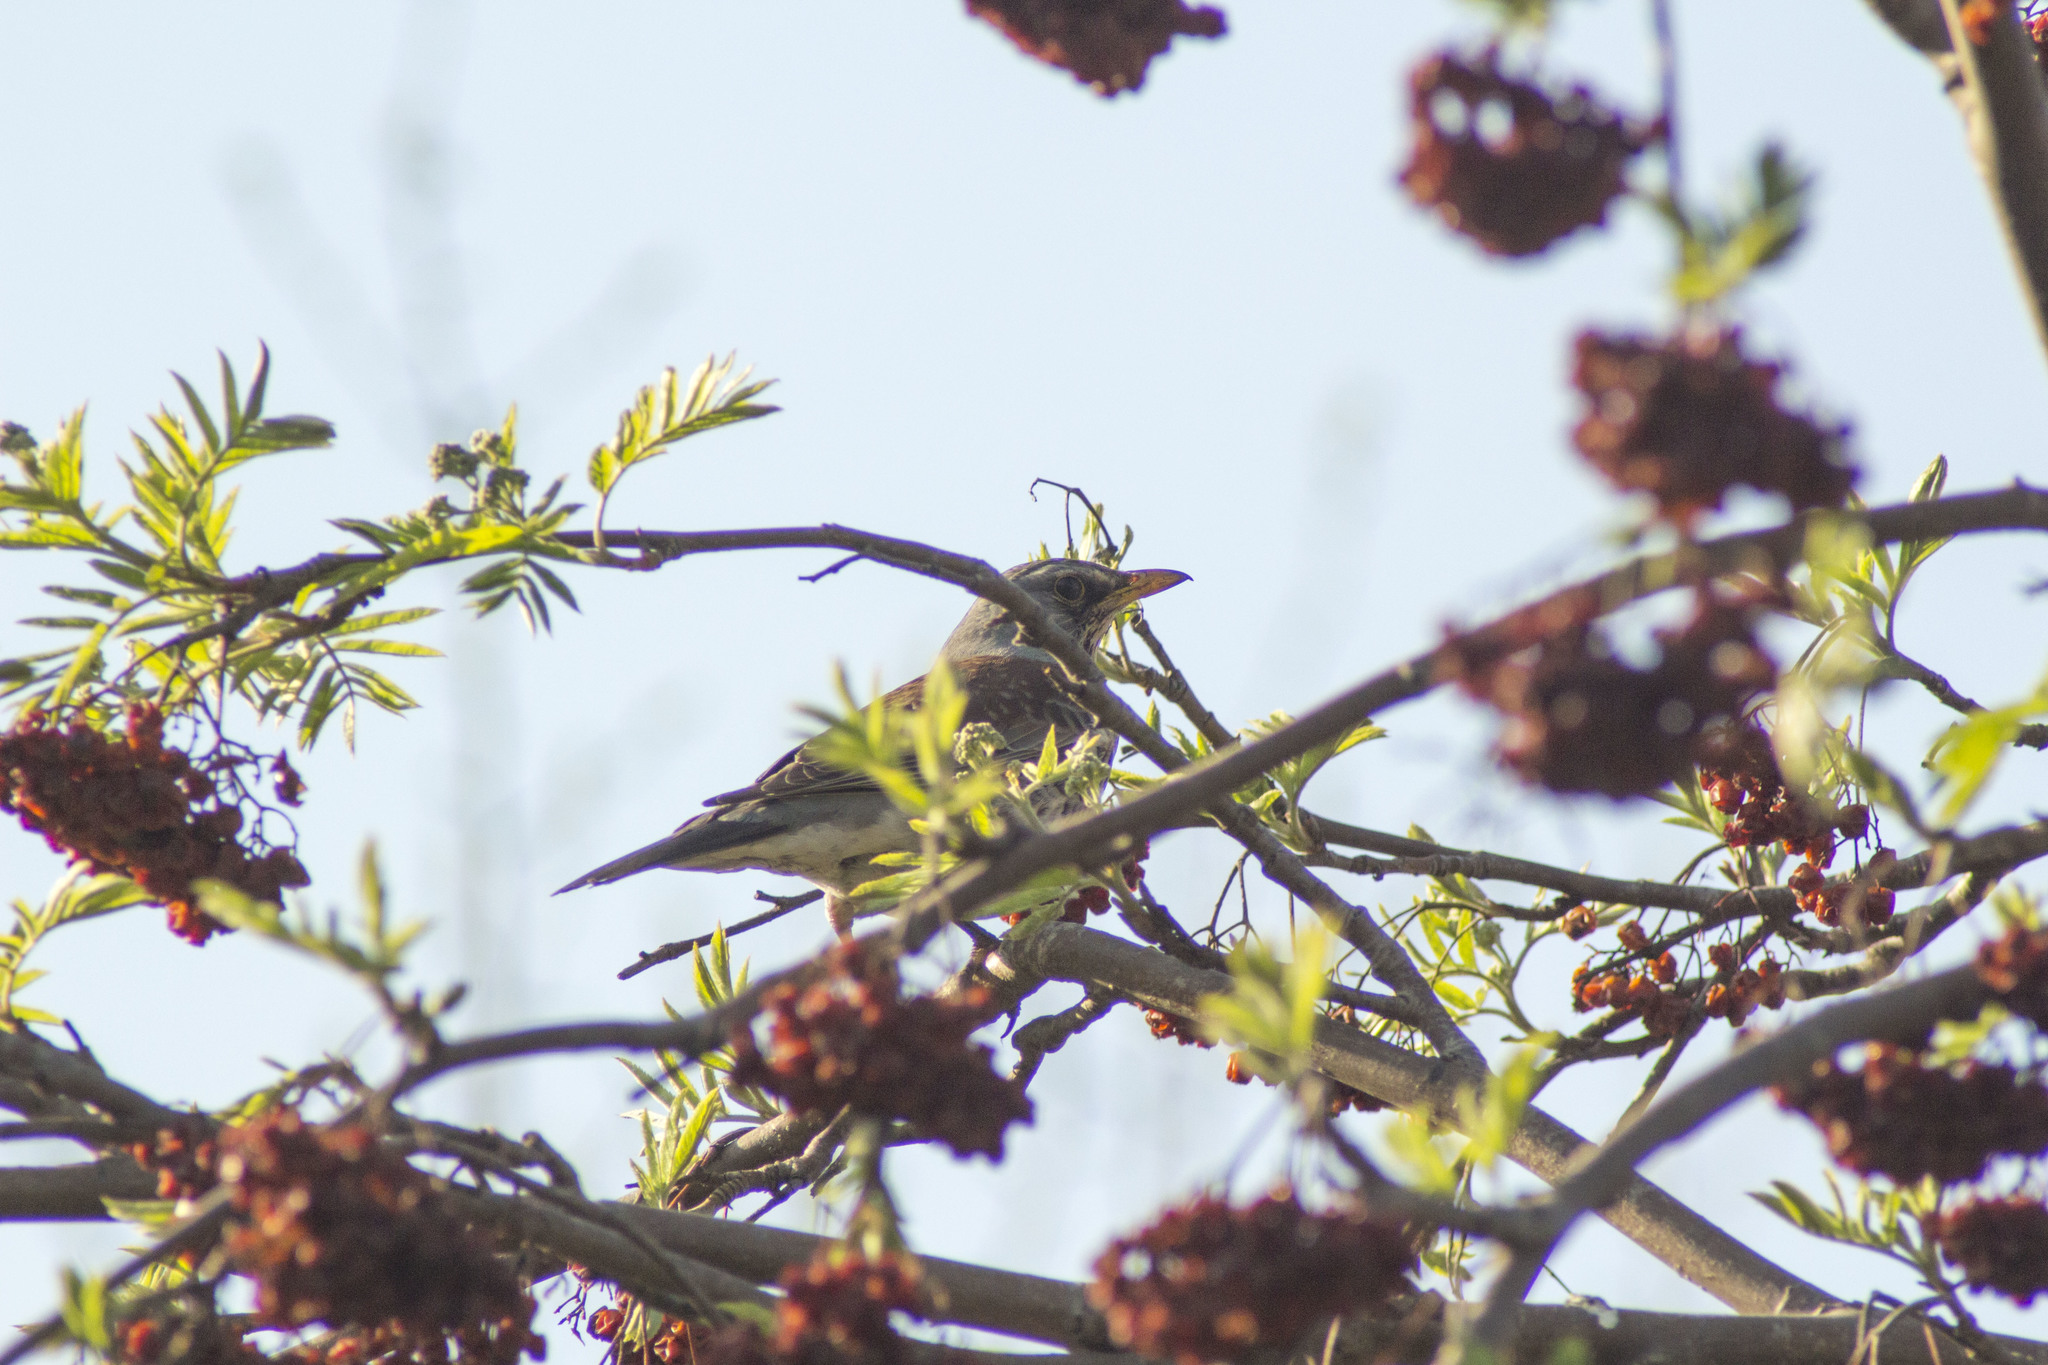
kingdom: Animalia
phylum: Chordata
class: Aves
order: Passeriformes
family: Turdidae
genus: Turdus
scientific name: Turdus pilaris
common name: Fieldfare
